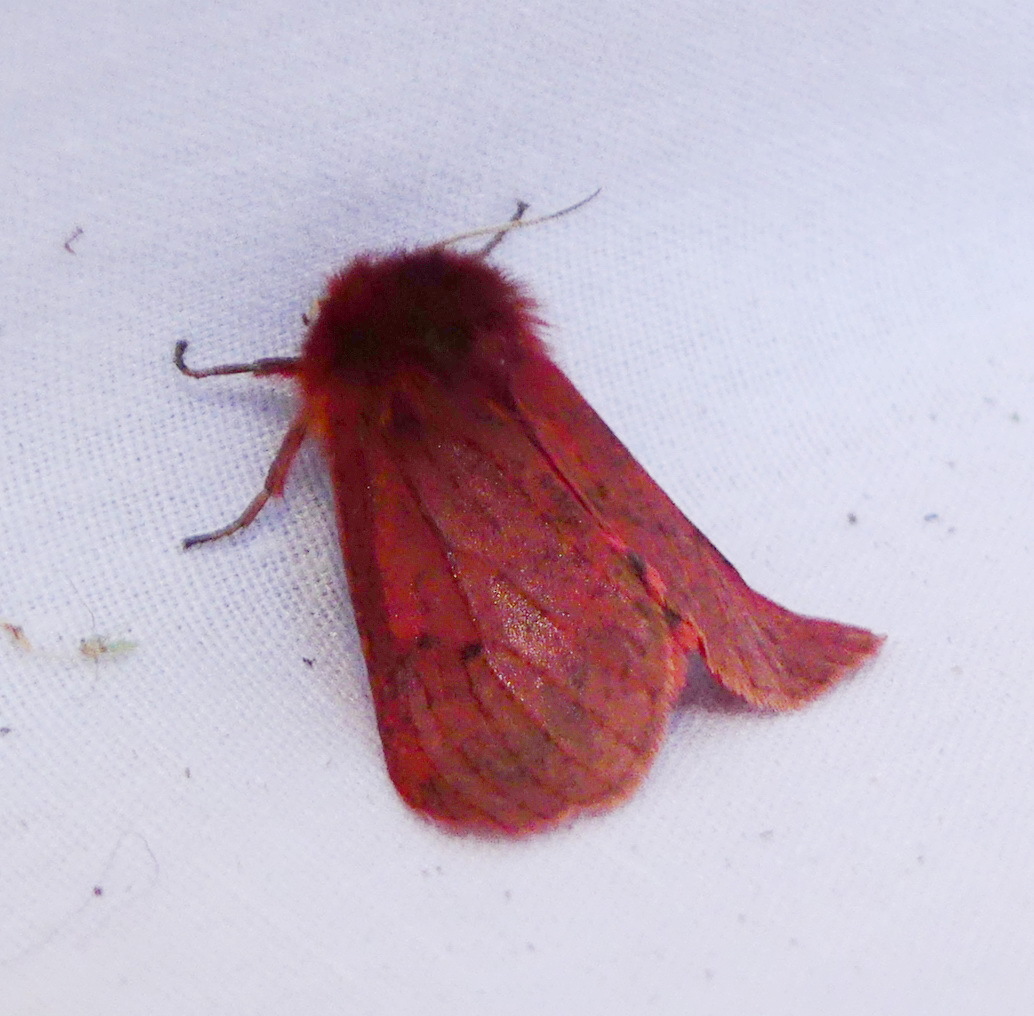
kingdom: Animalia
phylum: Arthropoda
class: Insecta
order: Lepidoptera
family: Erebidae
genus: Phragmatobia
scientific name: Phragmatobia fuliginosa
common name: Ruby tiger
